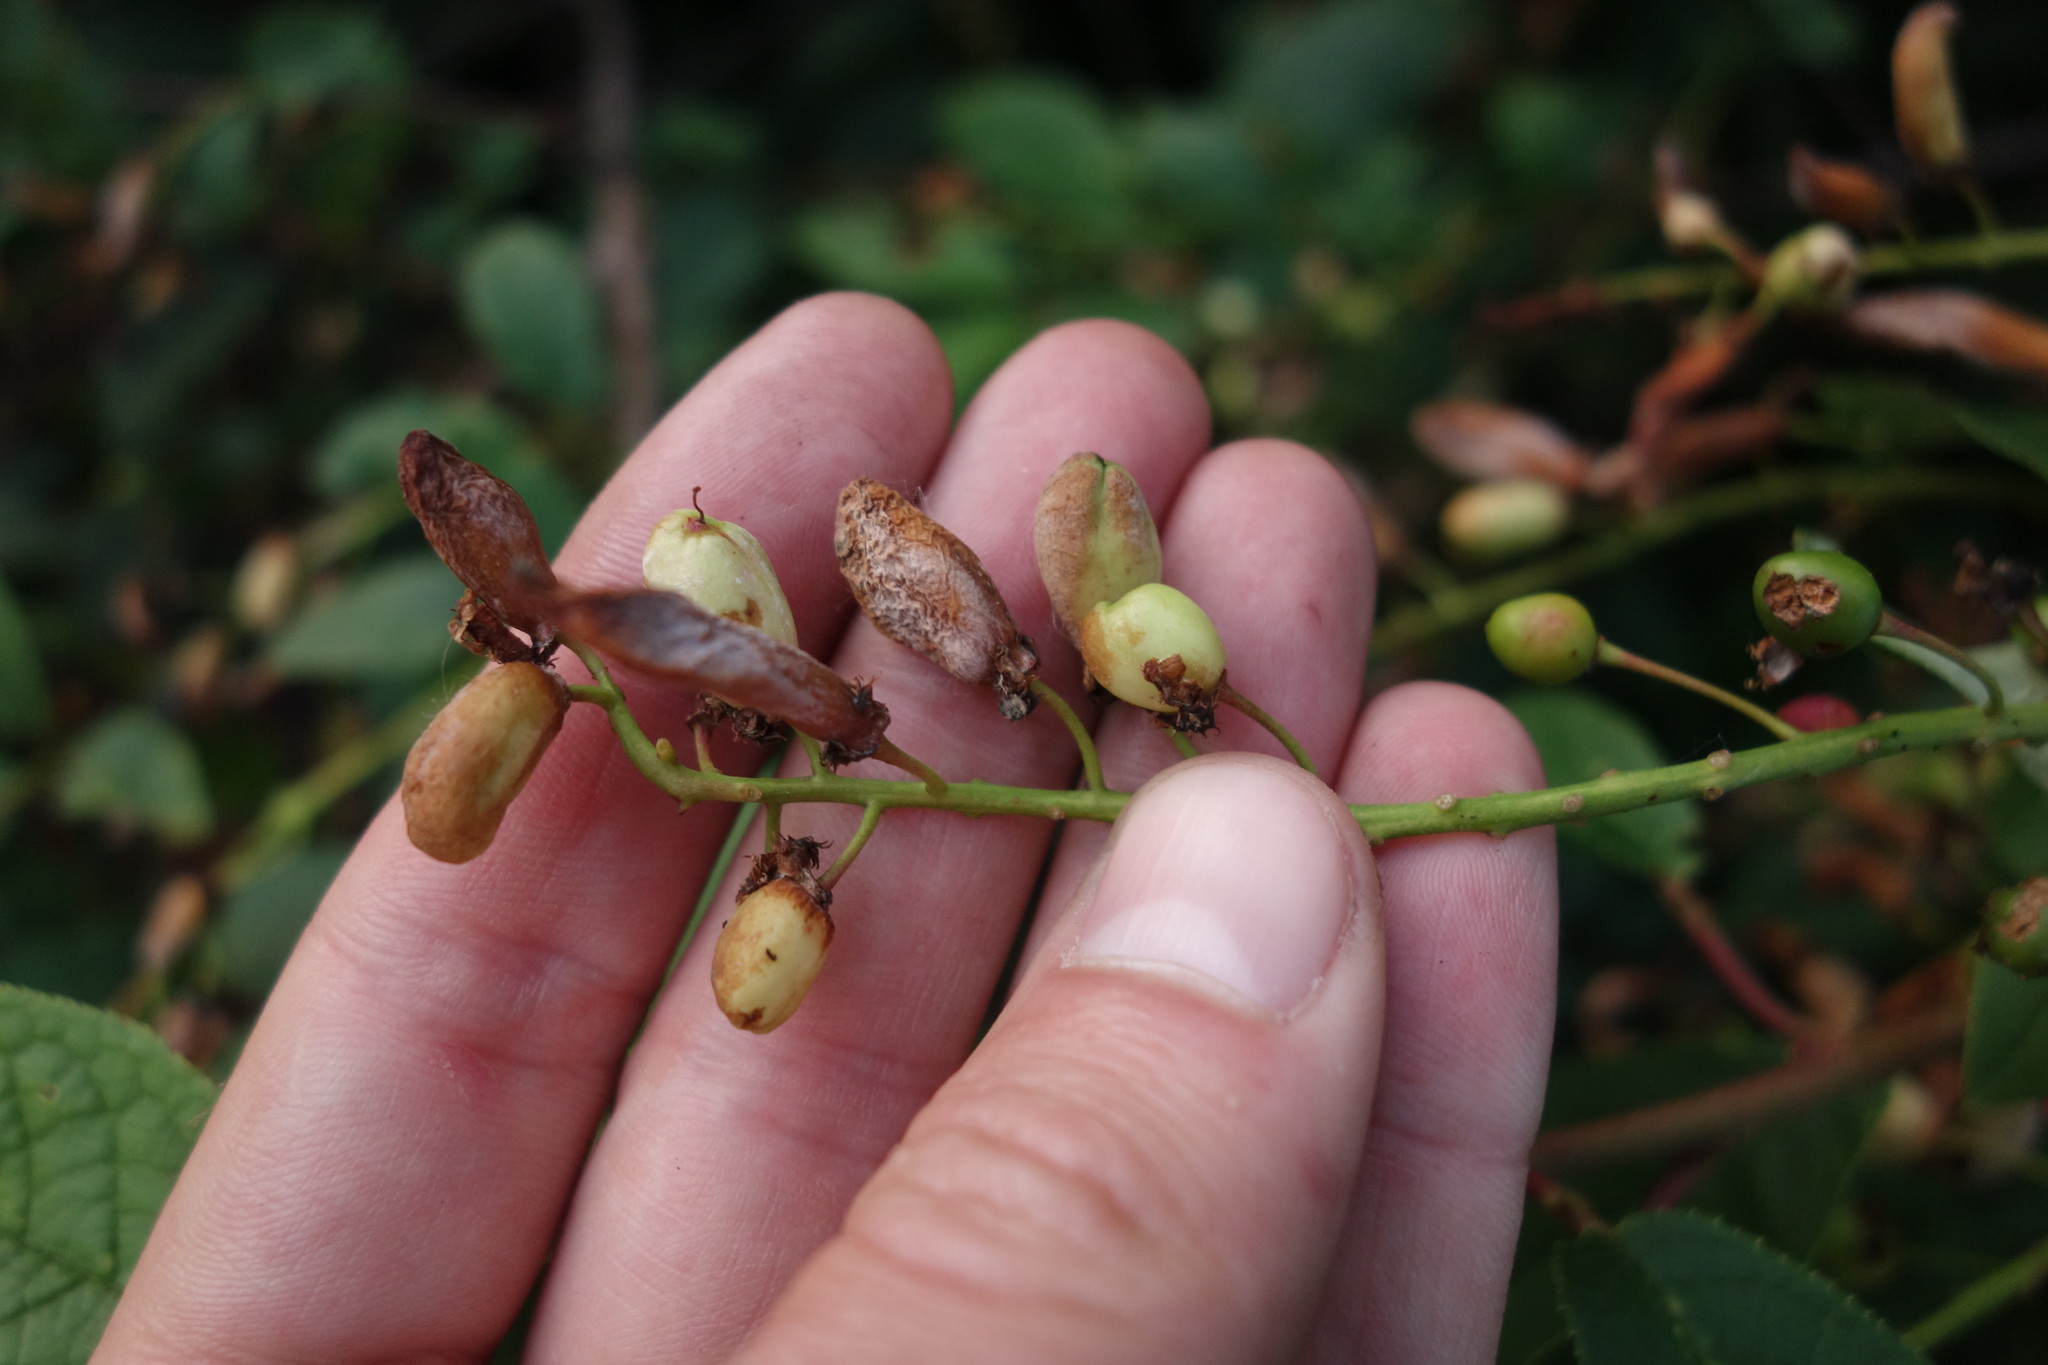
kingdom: Fungi
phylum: Ascomycota
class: Taphrinomycetes
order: Taphrinales
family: Taphrinaceae
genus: Taphrina
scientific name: Taphrina padi
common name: Bird cherry pocket
